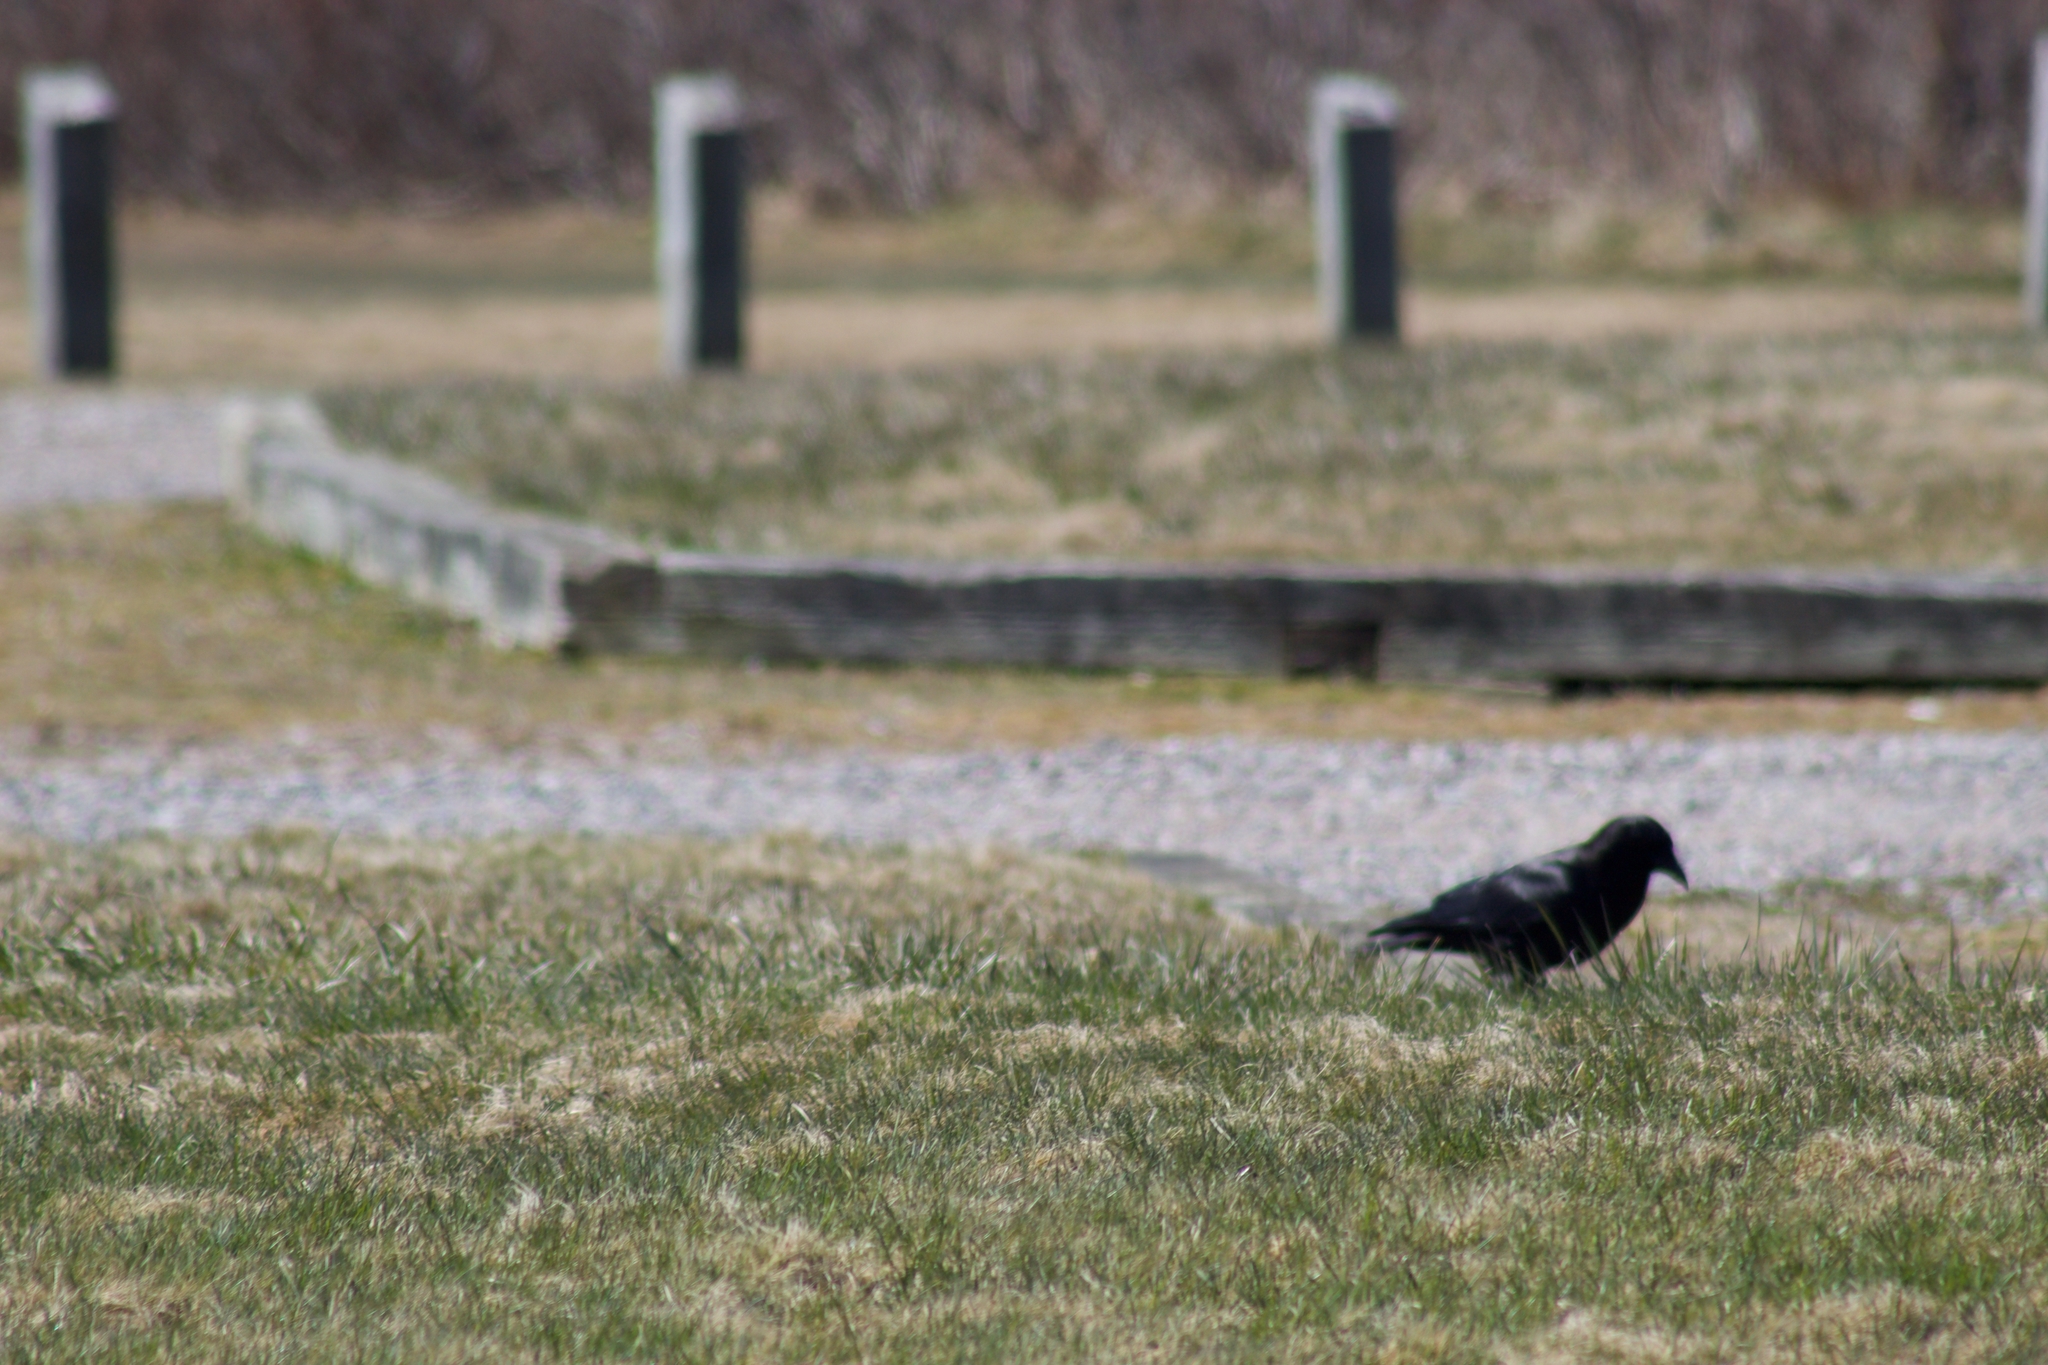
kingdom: Animalia
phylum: Chordata
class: Aves
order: Passeriformes
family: Corvidae
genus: Corvus
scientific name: Corvus brachyrhynchos
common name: American crow
